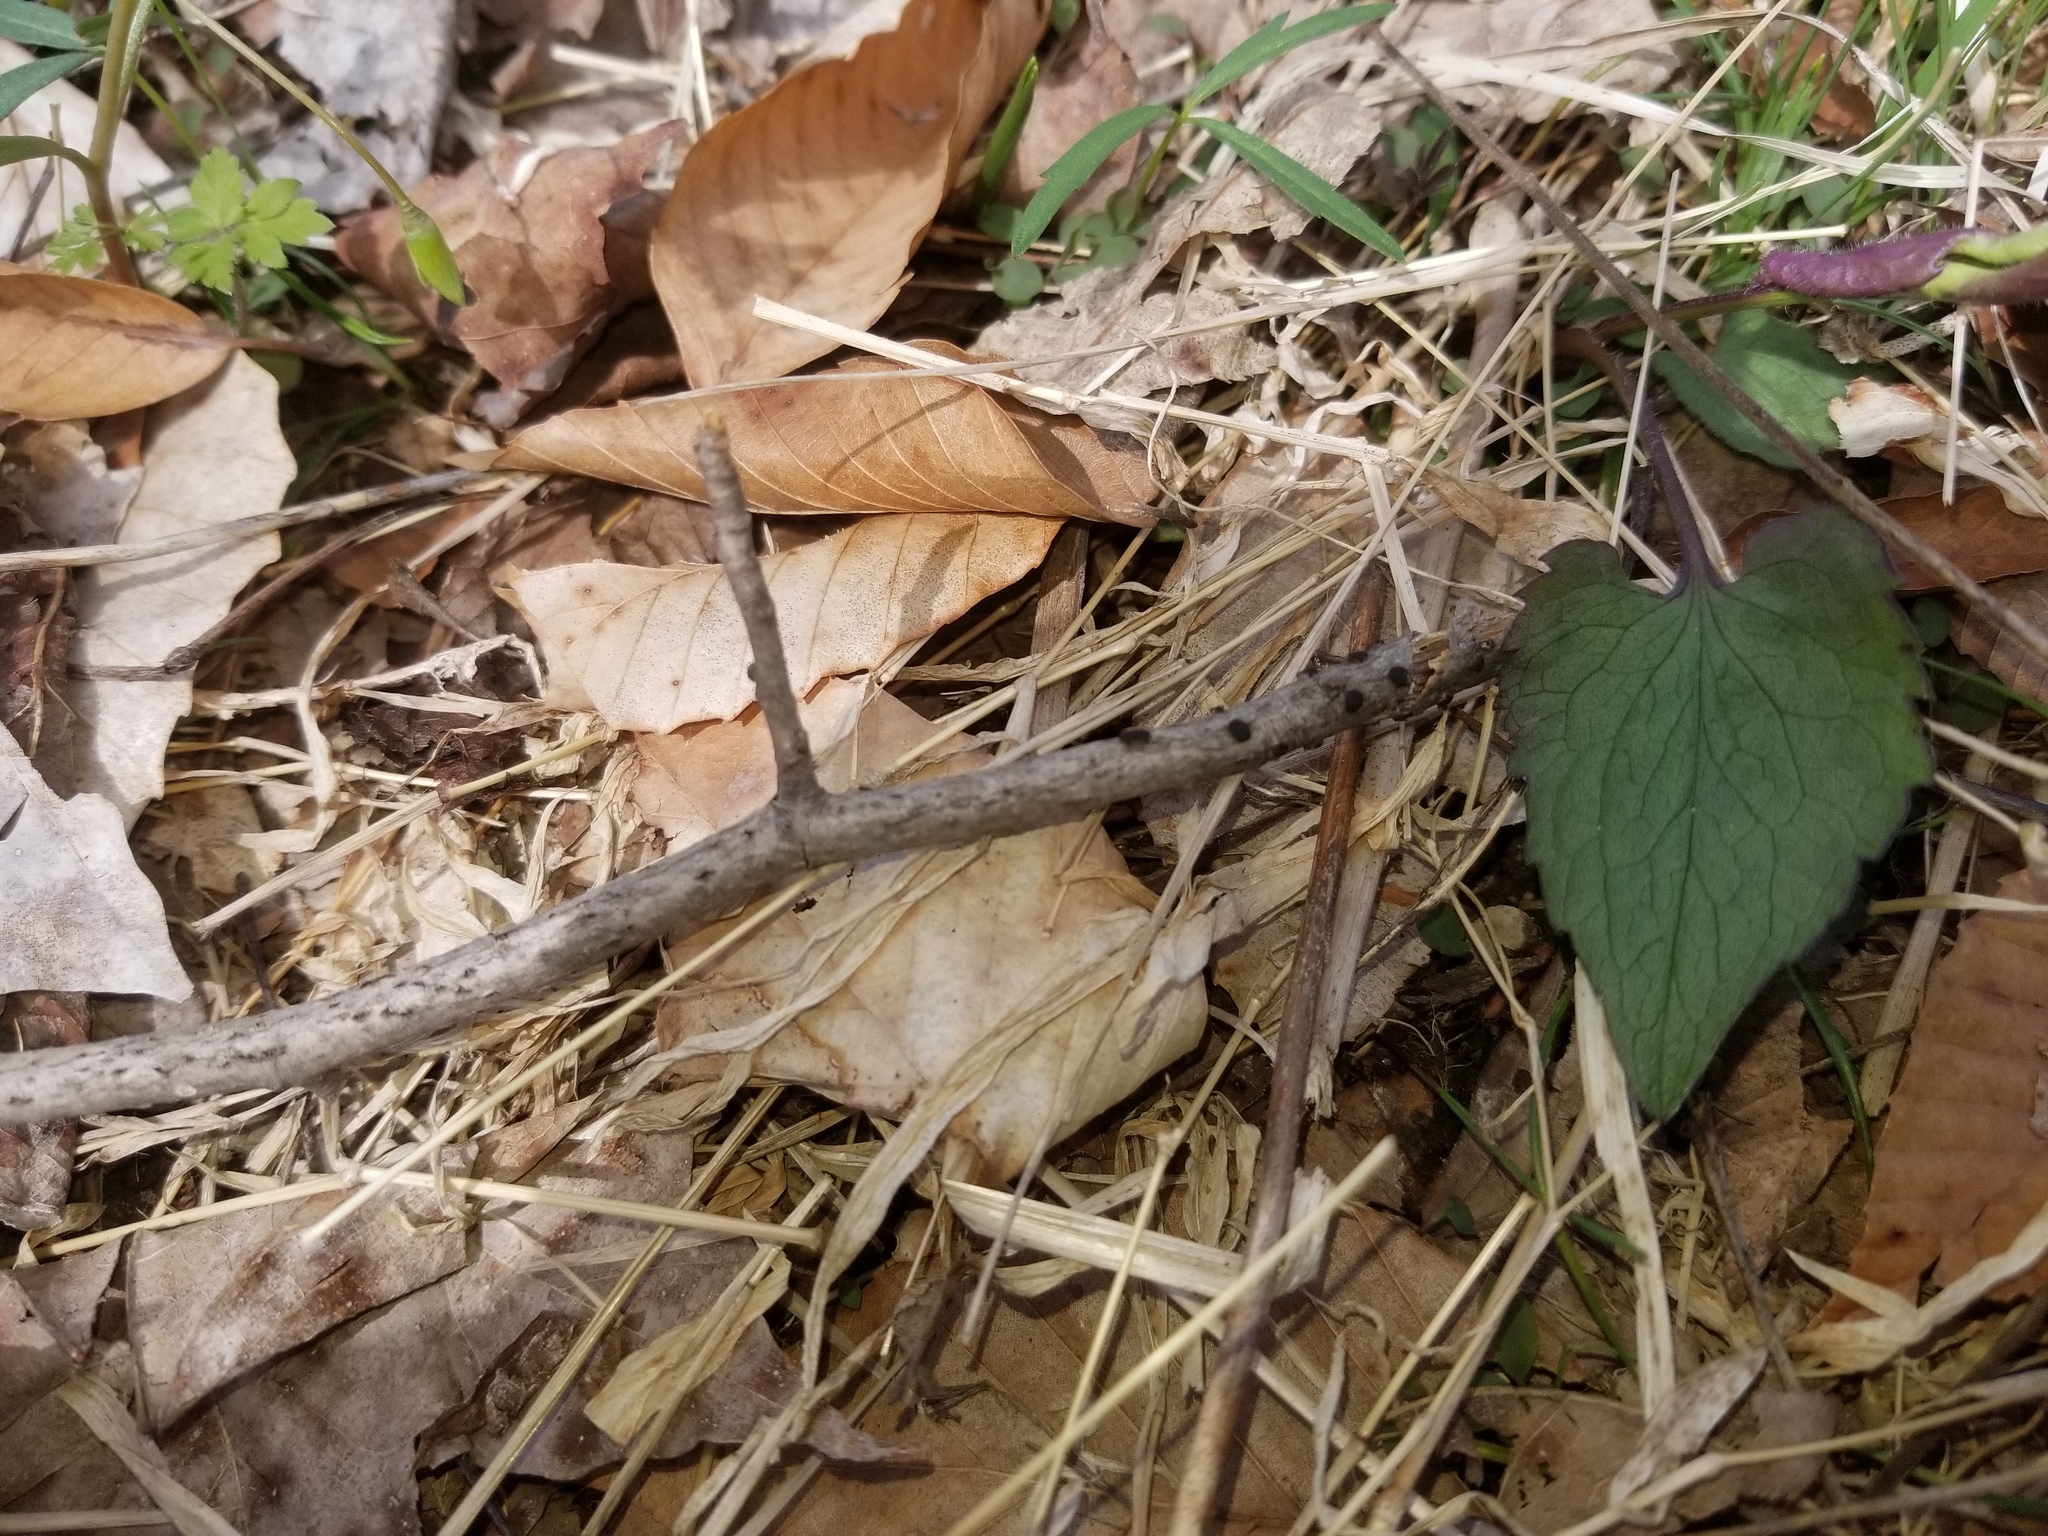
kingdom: Fungi
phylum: Ascomycota
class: Sordariomycetes
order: Xylariales
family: Diatrypaceae
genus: Diatrype
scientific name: Diatrype virescens
